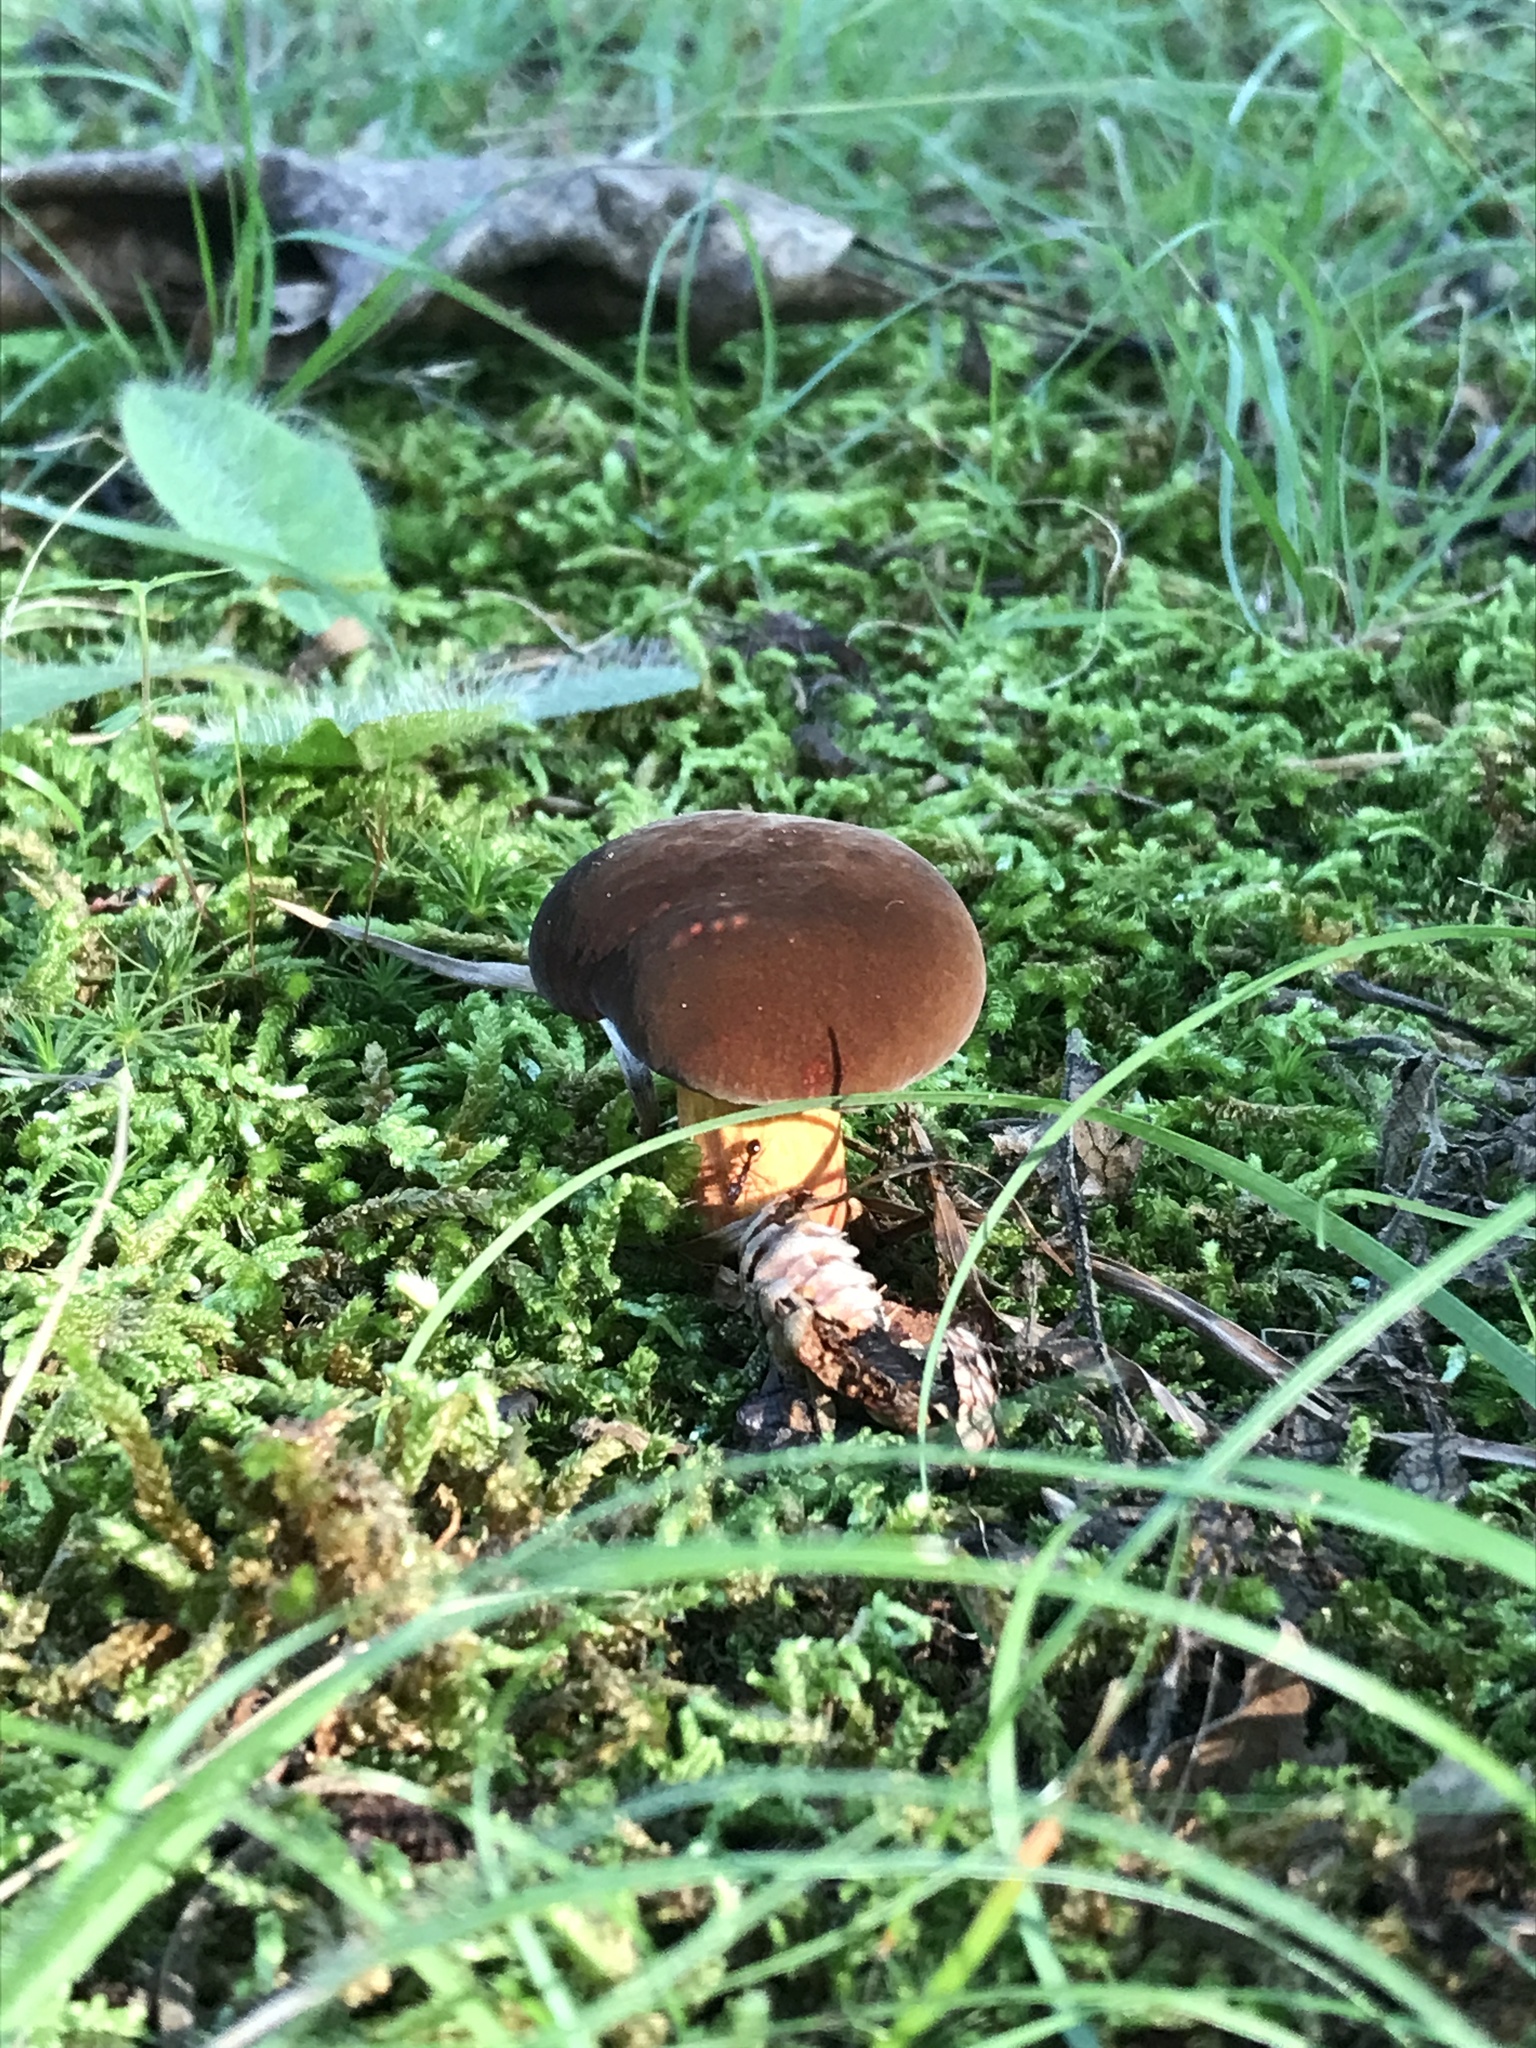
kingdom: Fungi
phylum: Basidiomycota
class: Agaricomycetes
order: Boletales
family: Boletaceae
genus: Boletus
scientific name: Boletus subvelutipes
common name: Red-mouth bolete
